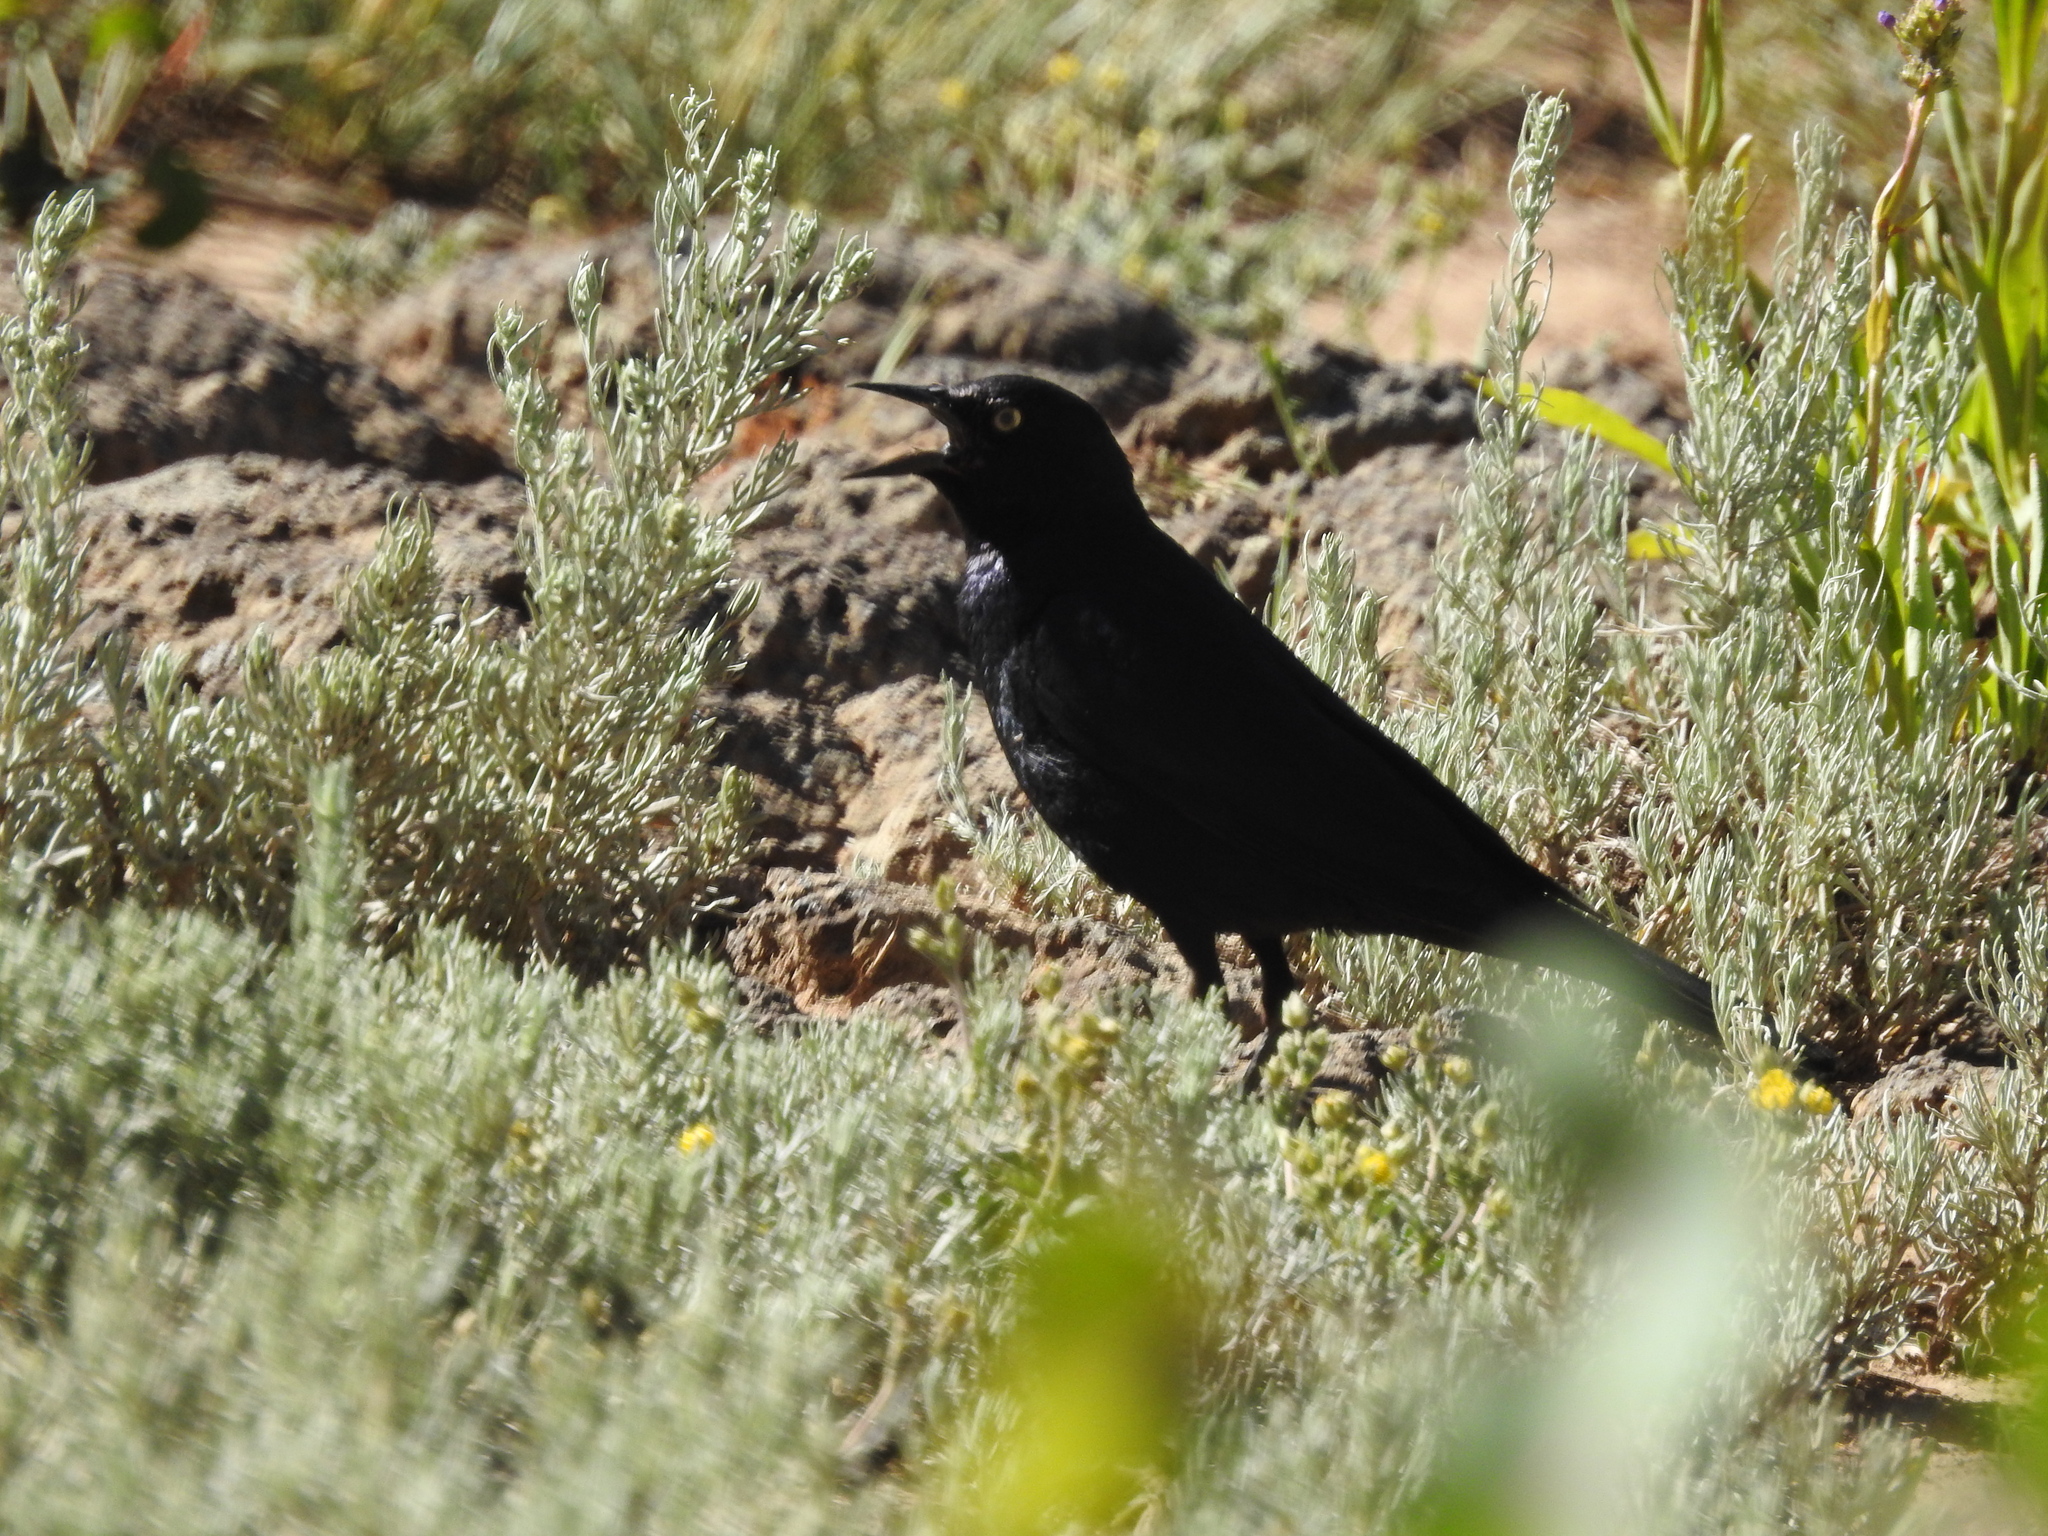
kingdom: Animalia
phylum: Chordata
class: Aves
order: Passeriformes
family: Icteridae
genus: Euphagus
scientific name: Euphagus cyanocephalus
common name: Brewer's blackbird
